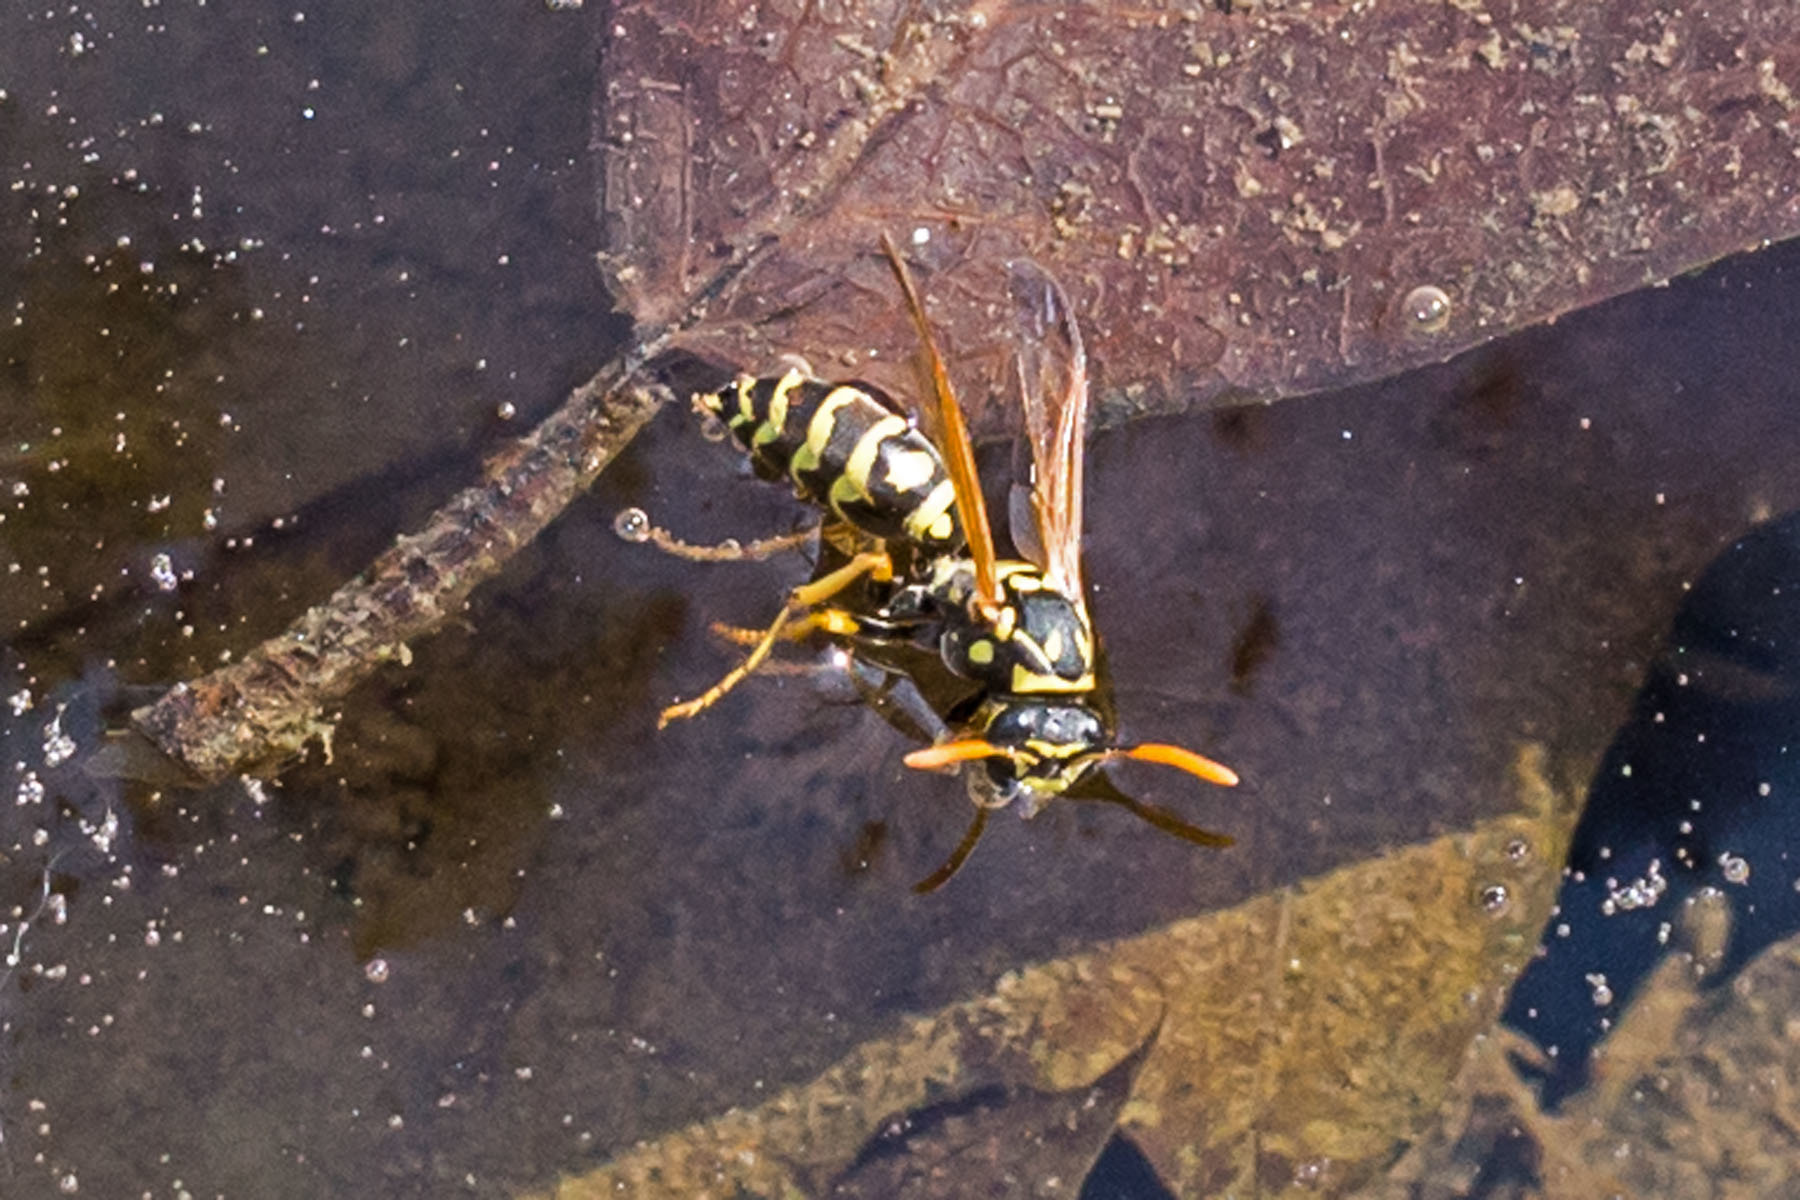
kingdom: Animalia
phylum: Arthropoda
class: Insecta
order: Hymenoptera
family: Eumenidae
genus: Polistes
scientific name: Polistes dominula
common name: Paper wasp
